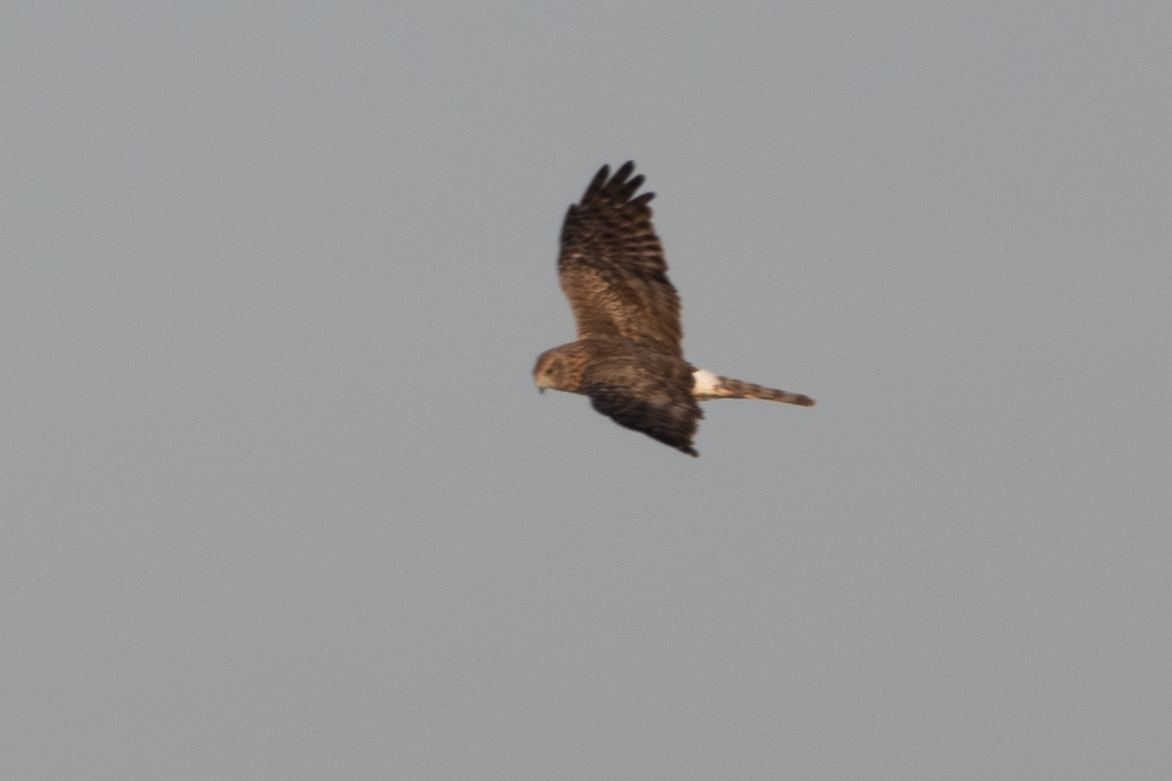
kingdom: Animalia
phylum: Chordata
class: Aves
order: Accipitriformes
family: Accipitridae
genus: Circus
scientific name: Circus cyaneus
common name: Hen harrier
